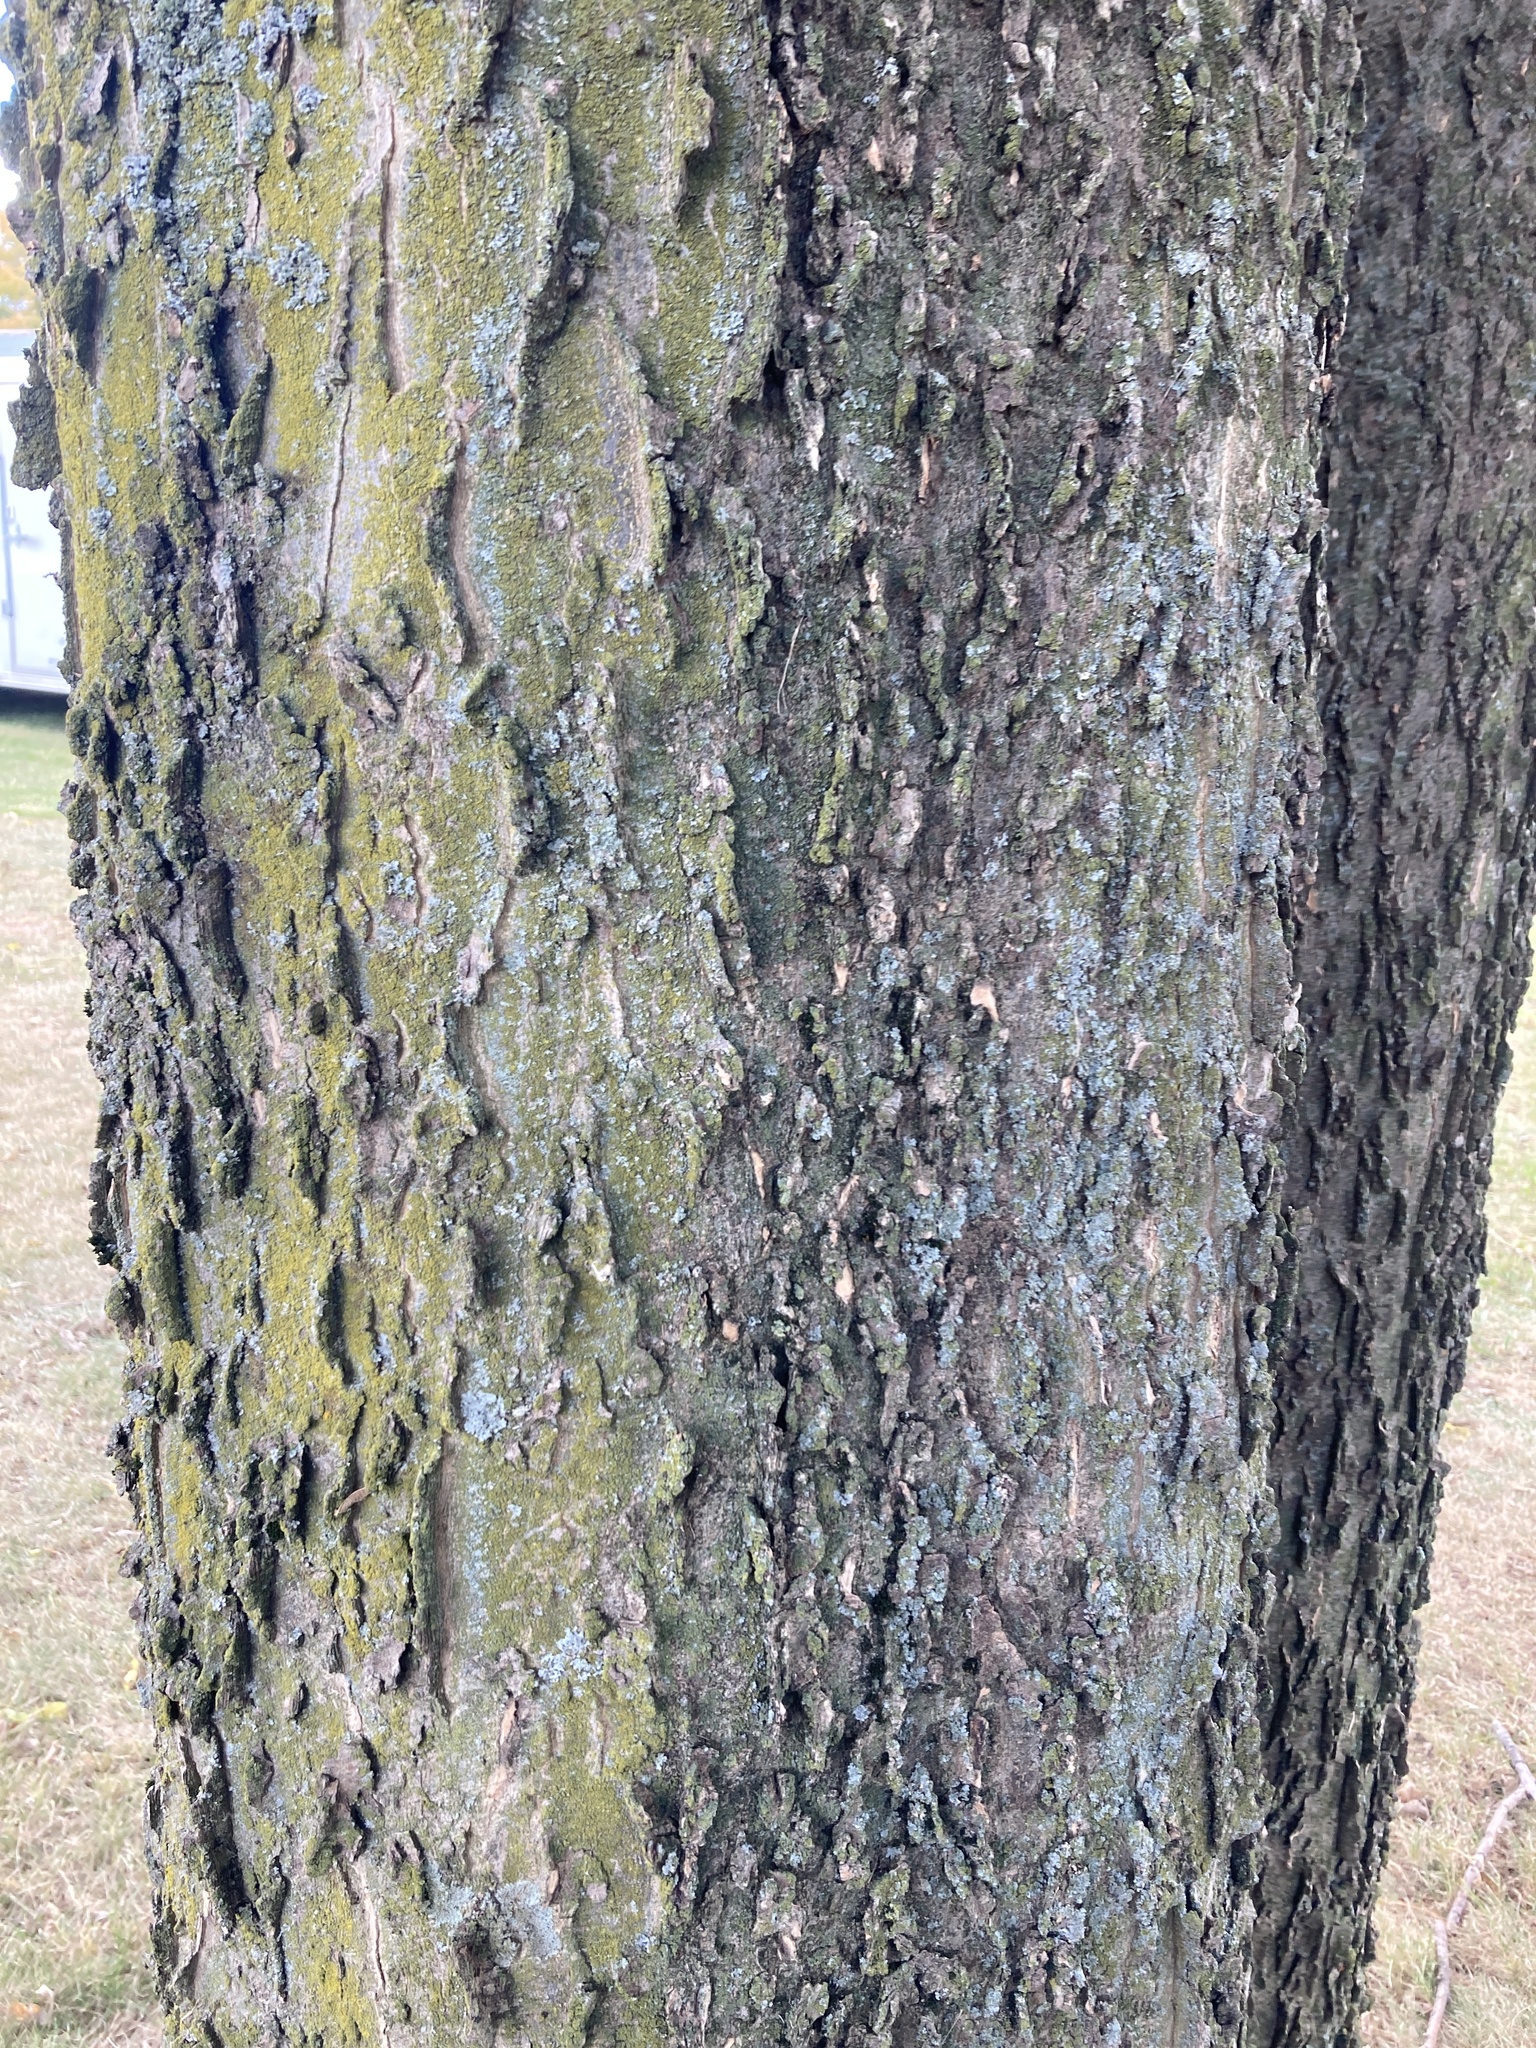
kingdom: Plantae
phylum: Tracheophyta
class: Magnoliopsida
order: Rosales
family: Cannabaceae
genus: Celtis
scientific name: Celtis occidentalis
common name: Common hackberry
